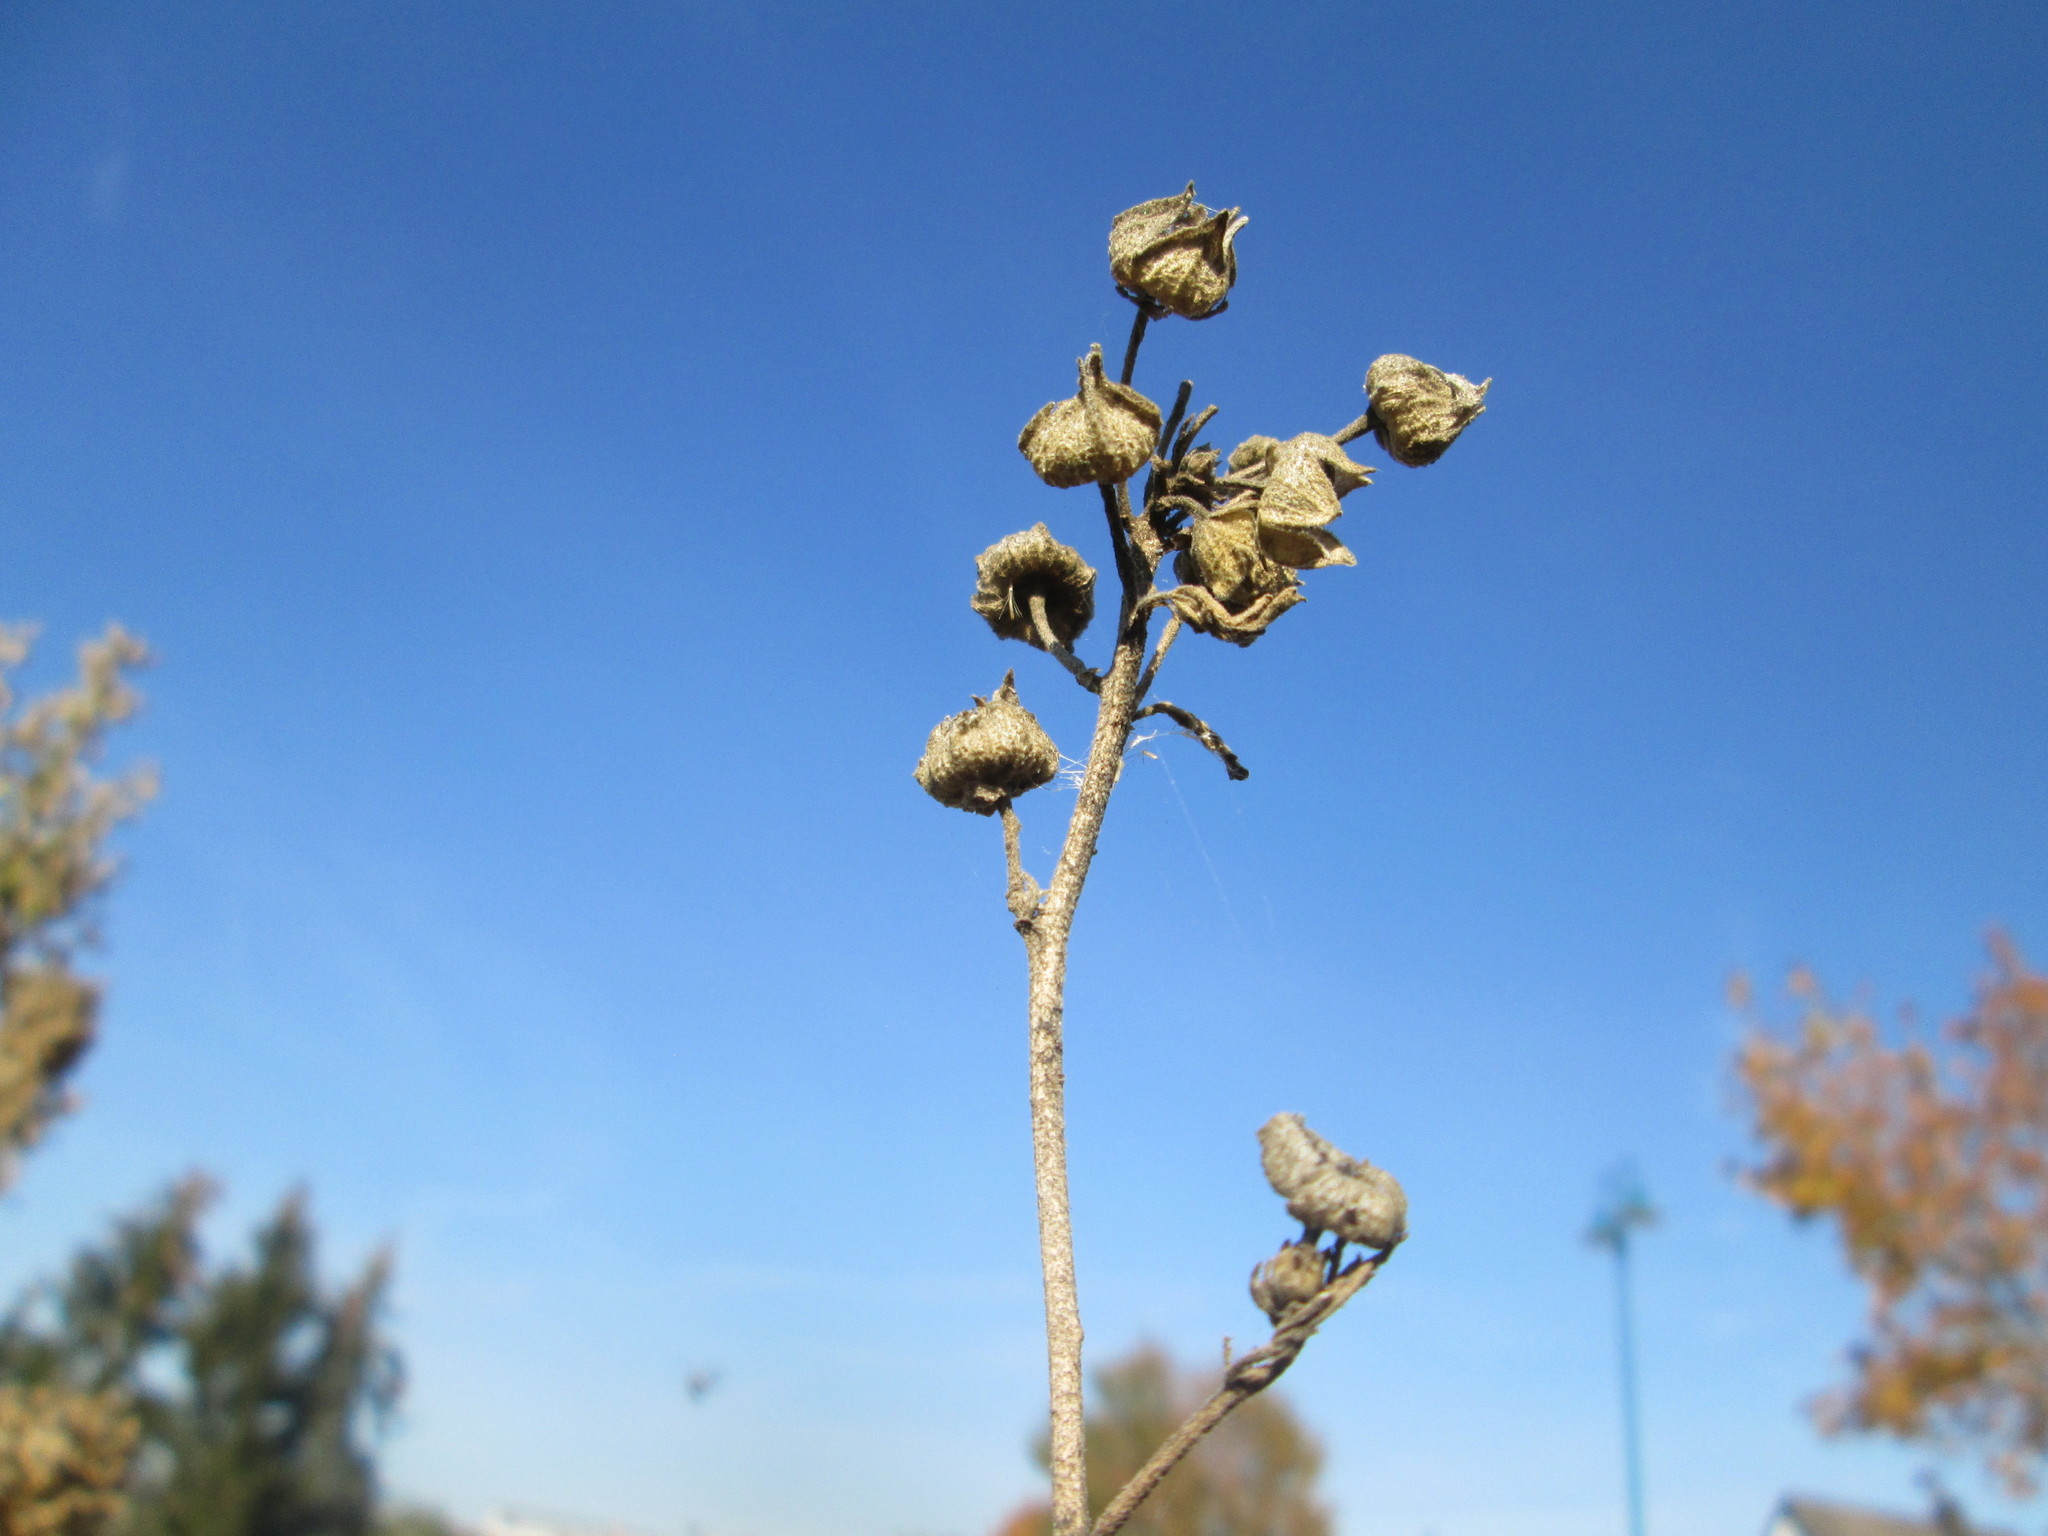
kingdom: Plantae
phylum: Tracheophyta
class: Magnoliopsida
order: Malvales
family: Malvaceae
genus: Malva
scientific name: Malva alcea
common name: Greater musk-mallow
